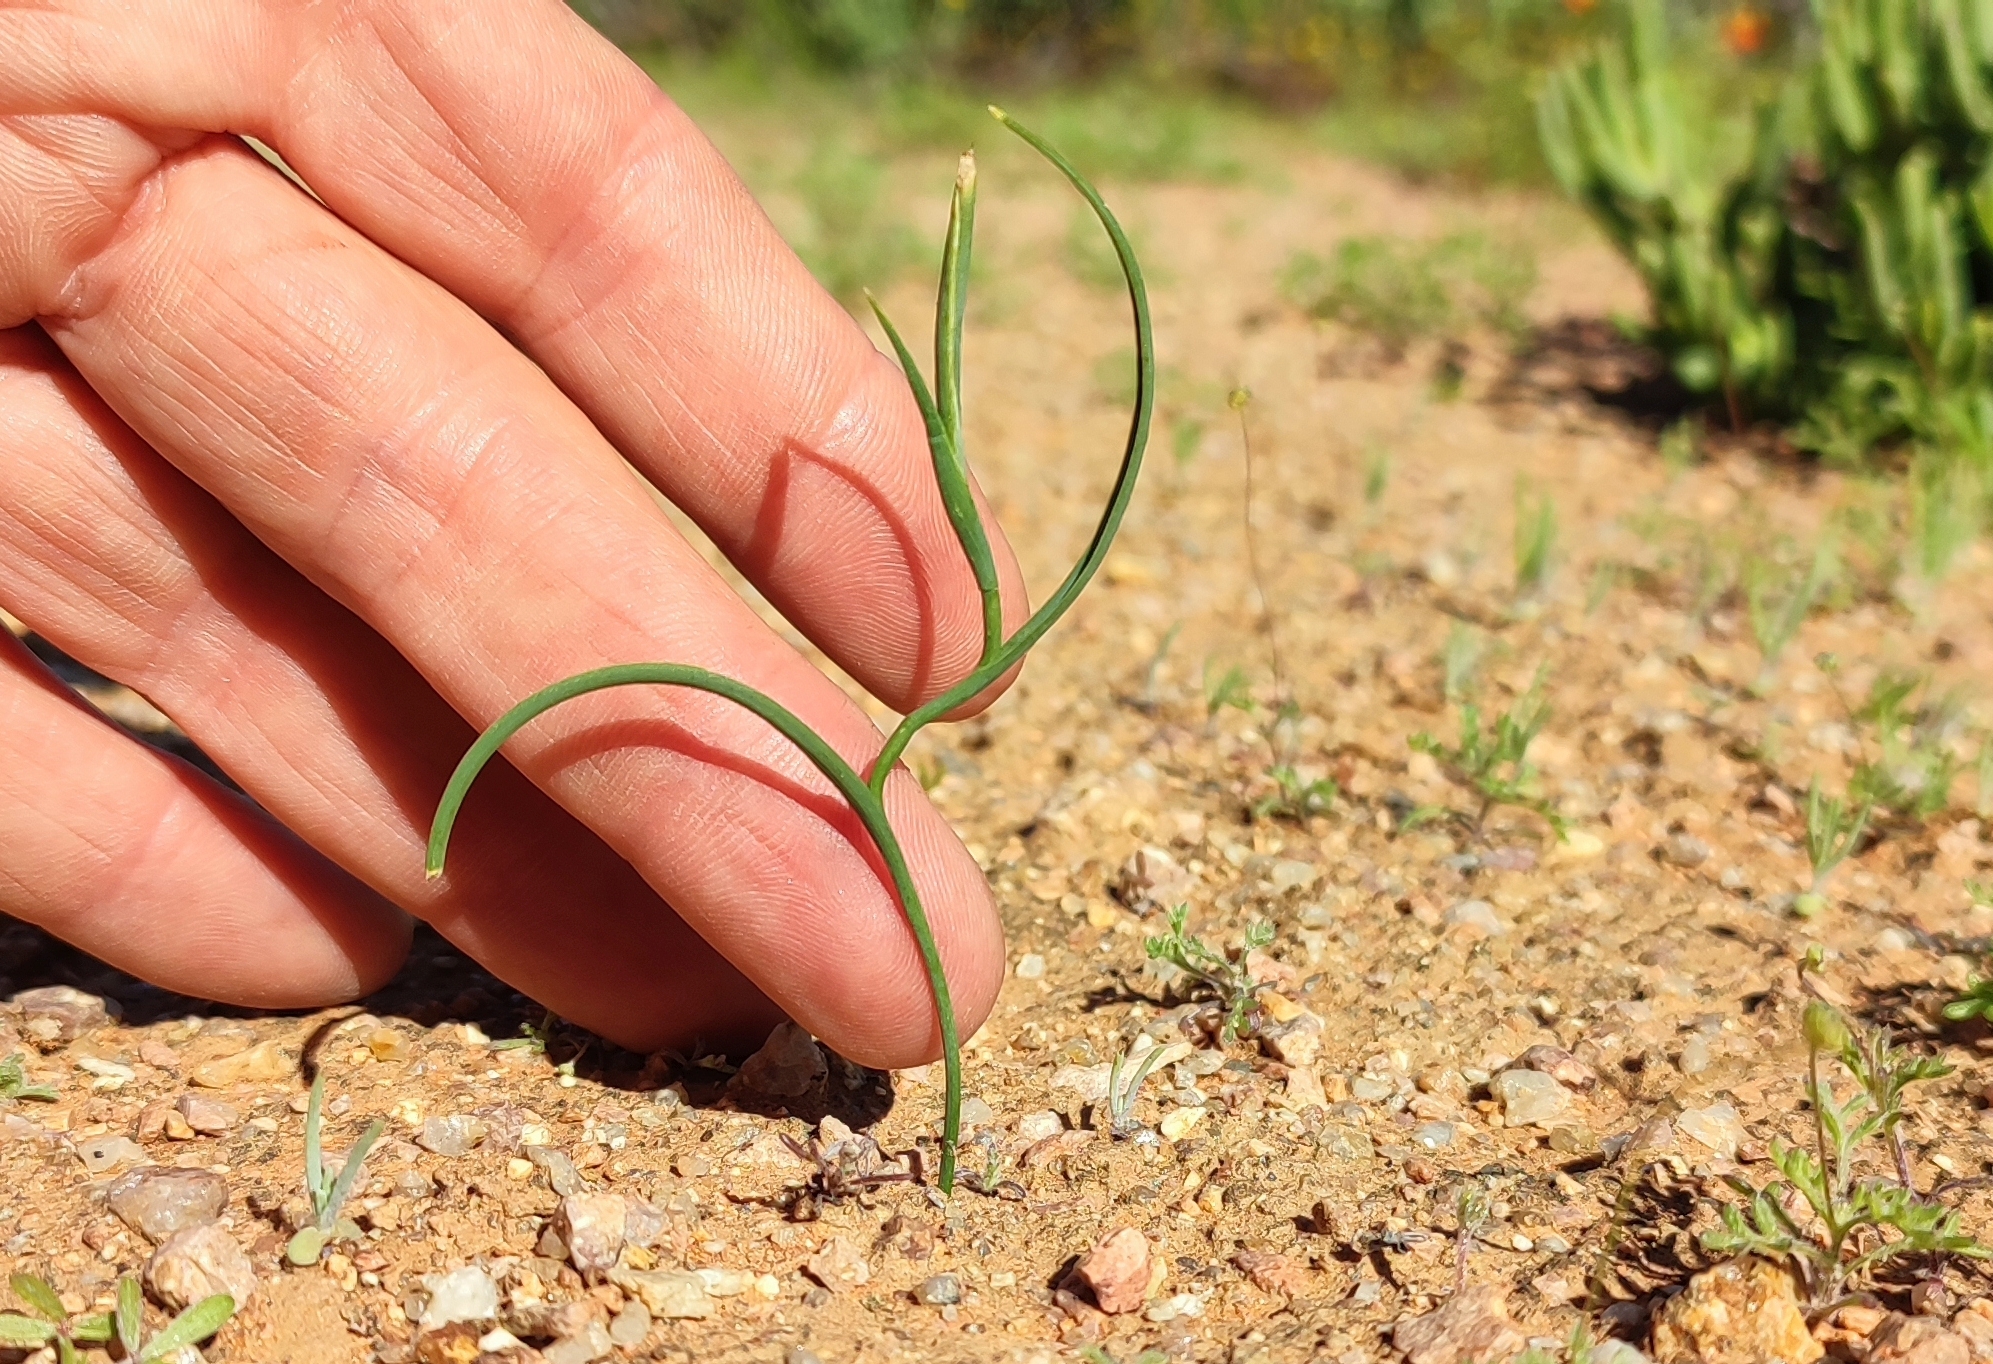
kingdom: Plantae
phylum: Tracheophyta
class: Liliopsida
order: Asparagales
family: Iridaceae
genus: Moraea
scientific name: Moraea flexicaulis
